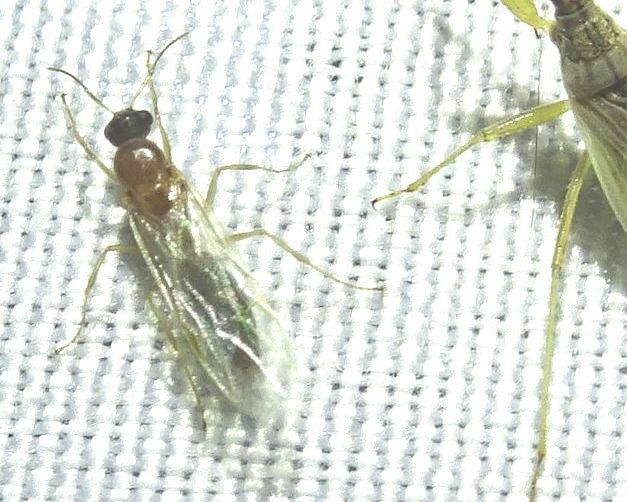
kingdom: Animalia
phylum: Arthropoda
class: Insecta
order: Hymenoptera
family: Formicidae
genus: Camponotus
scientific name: Camponotus truncatus
